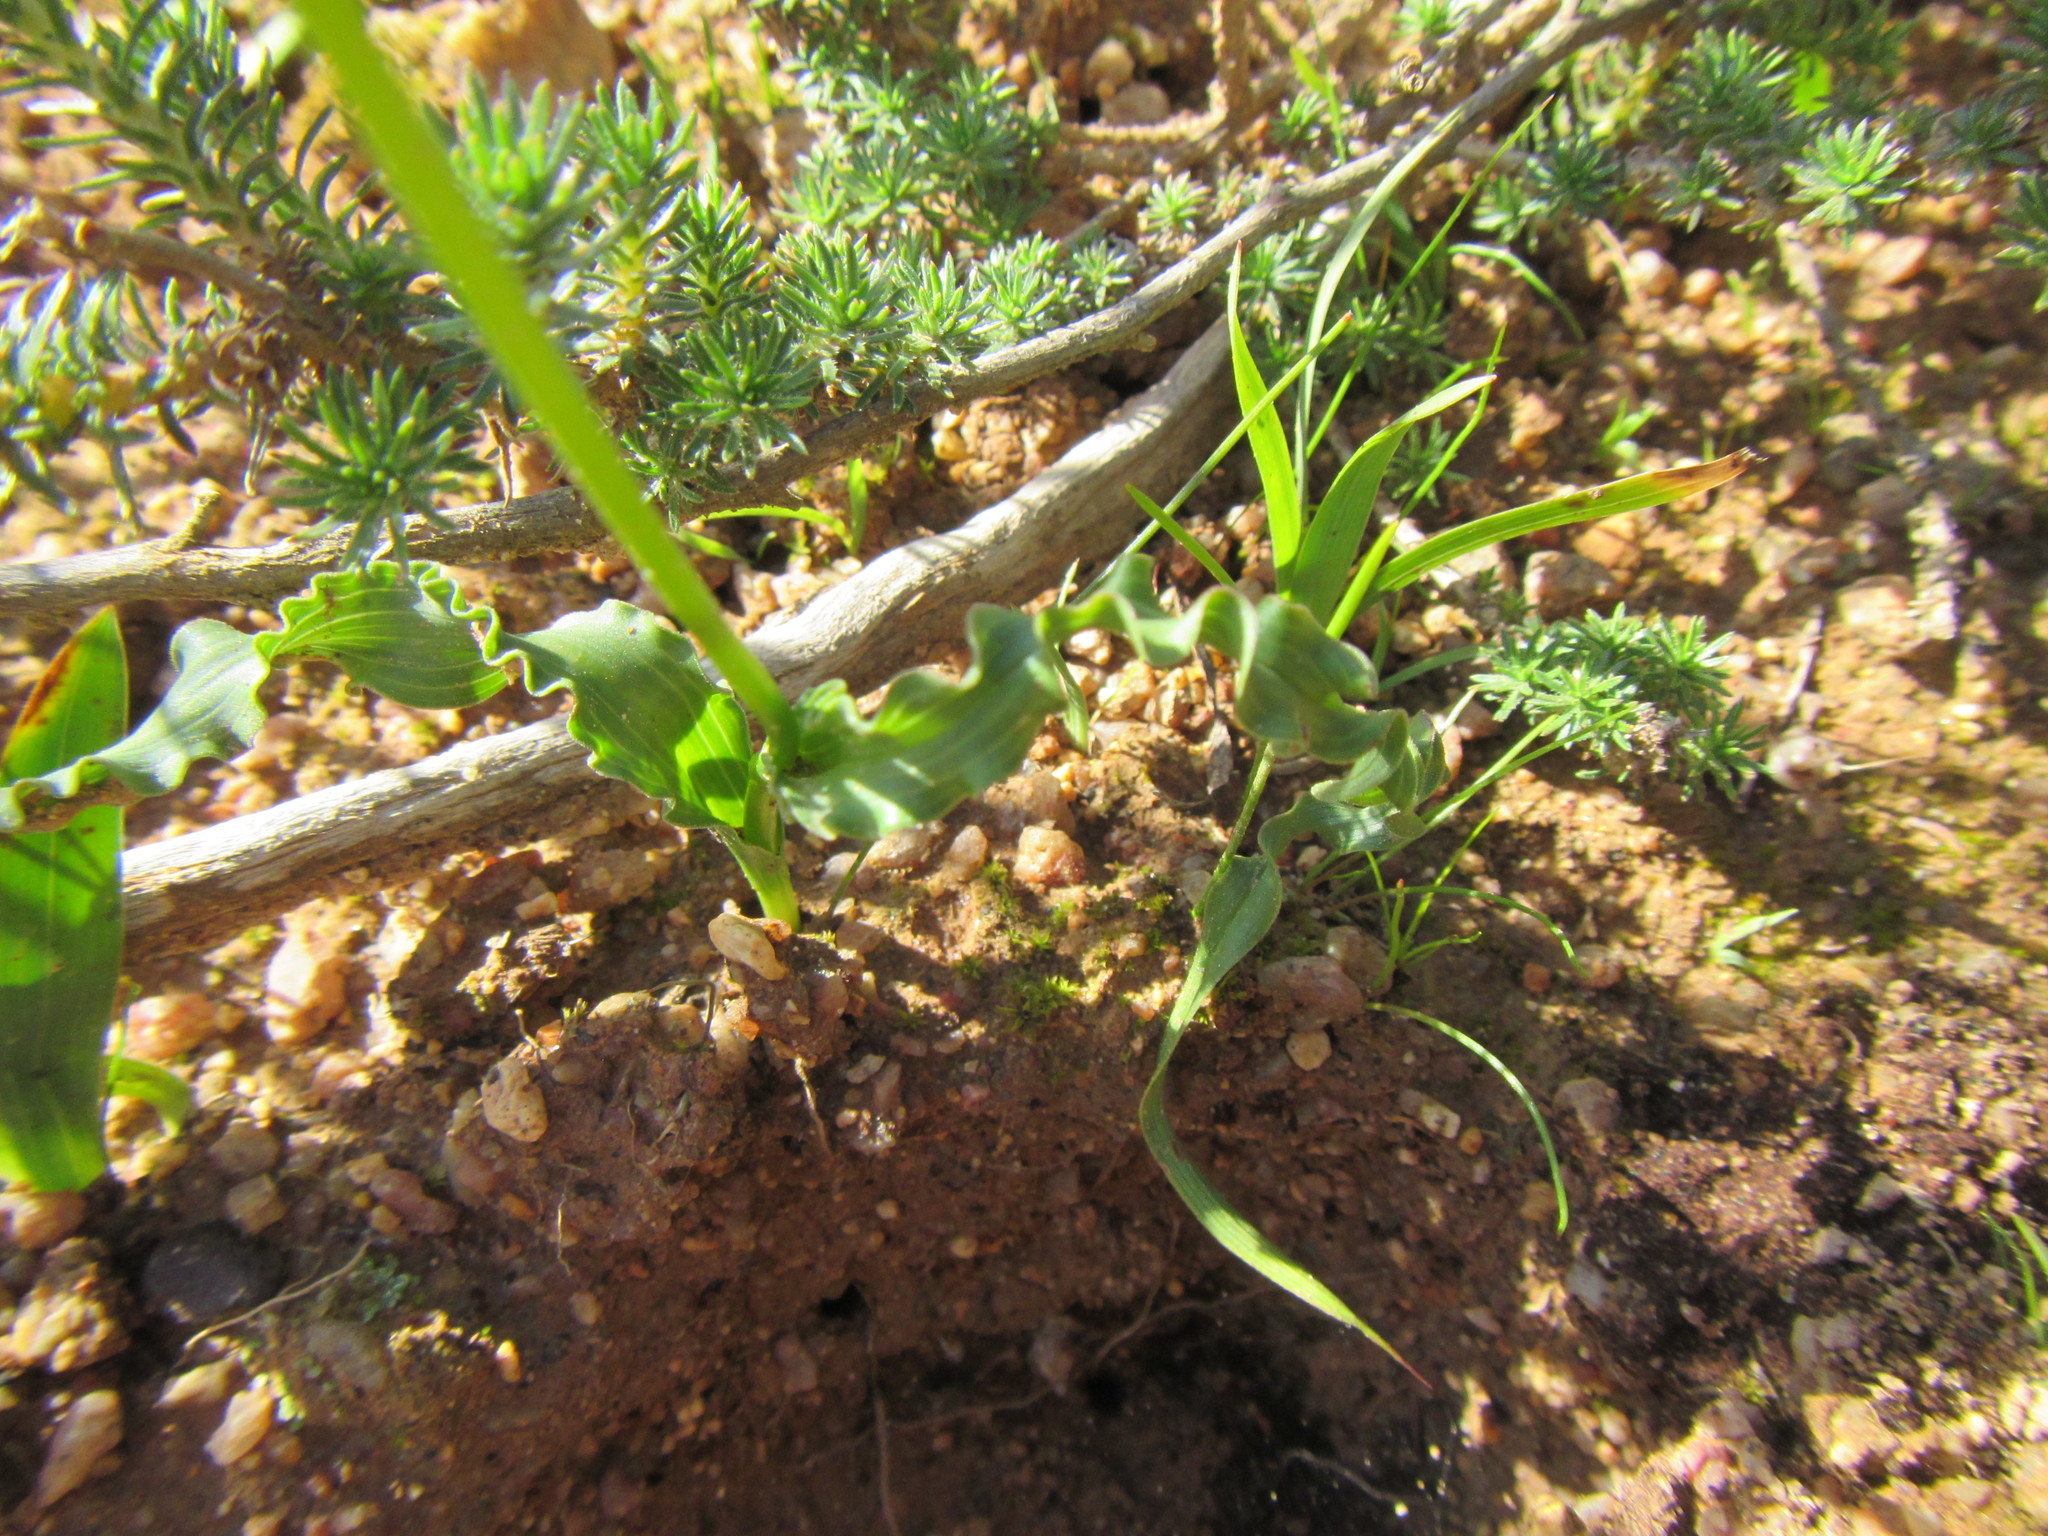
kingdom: Plantae
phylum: Tracheophyta
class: Liliopsida
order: Asparagales
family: Iridaceae
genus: Moraea
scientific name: Moraea gawleri
